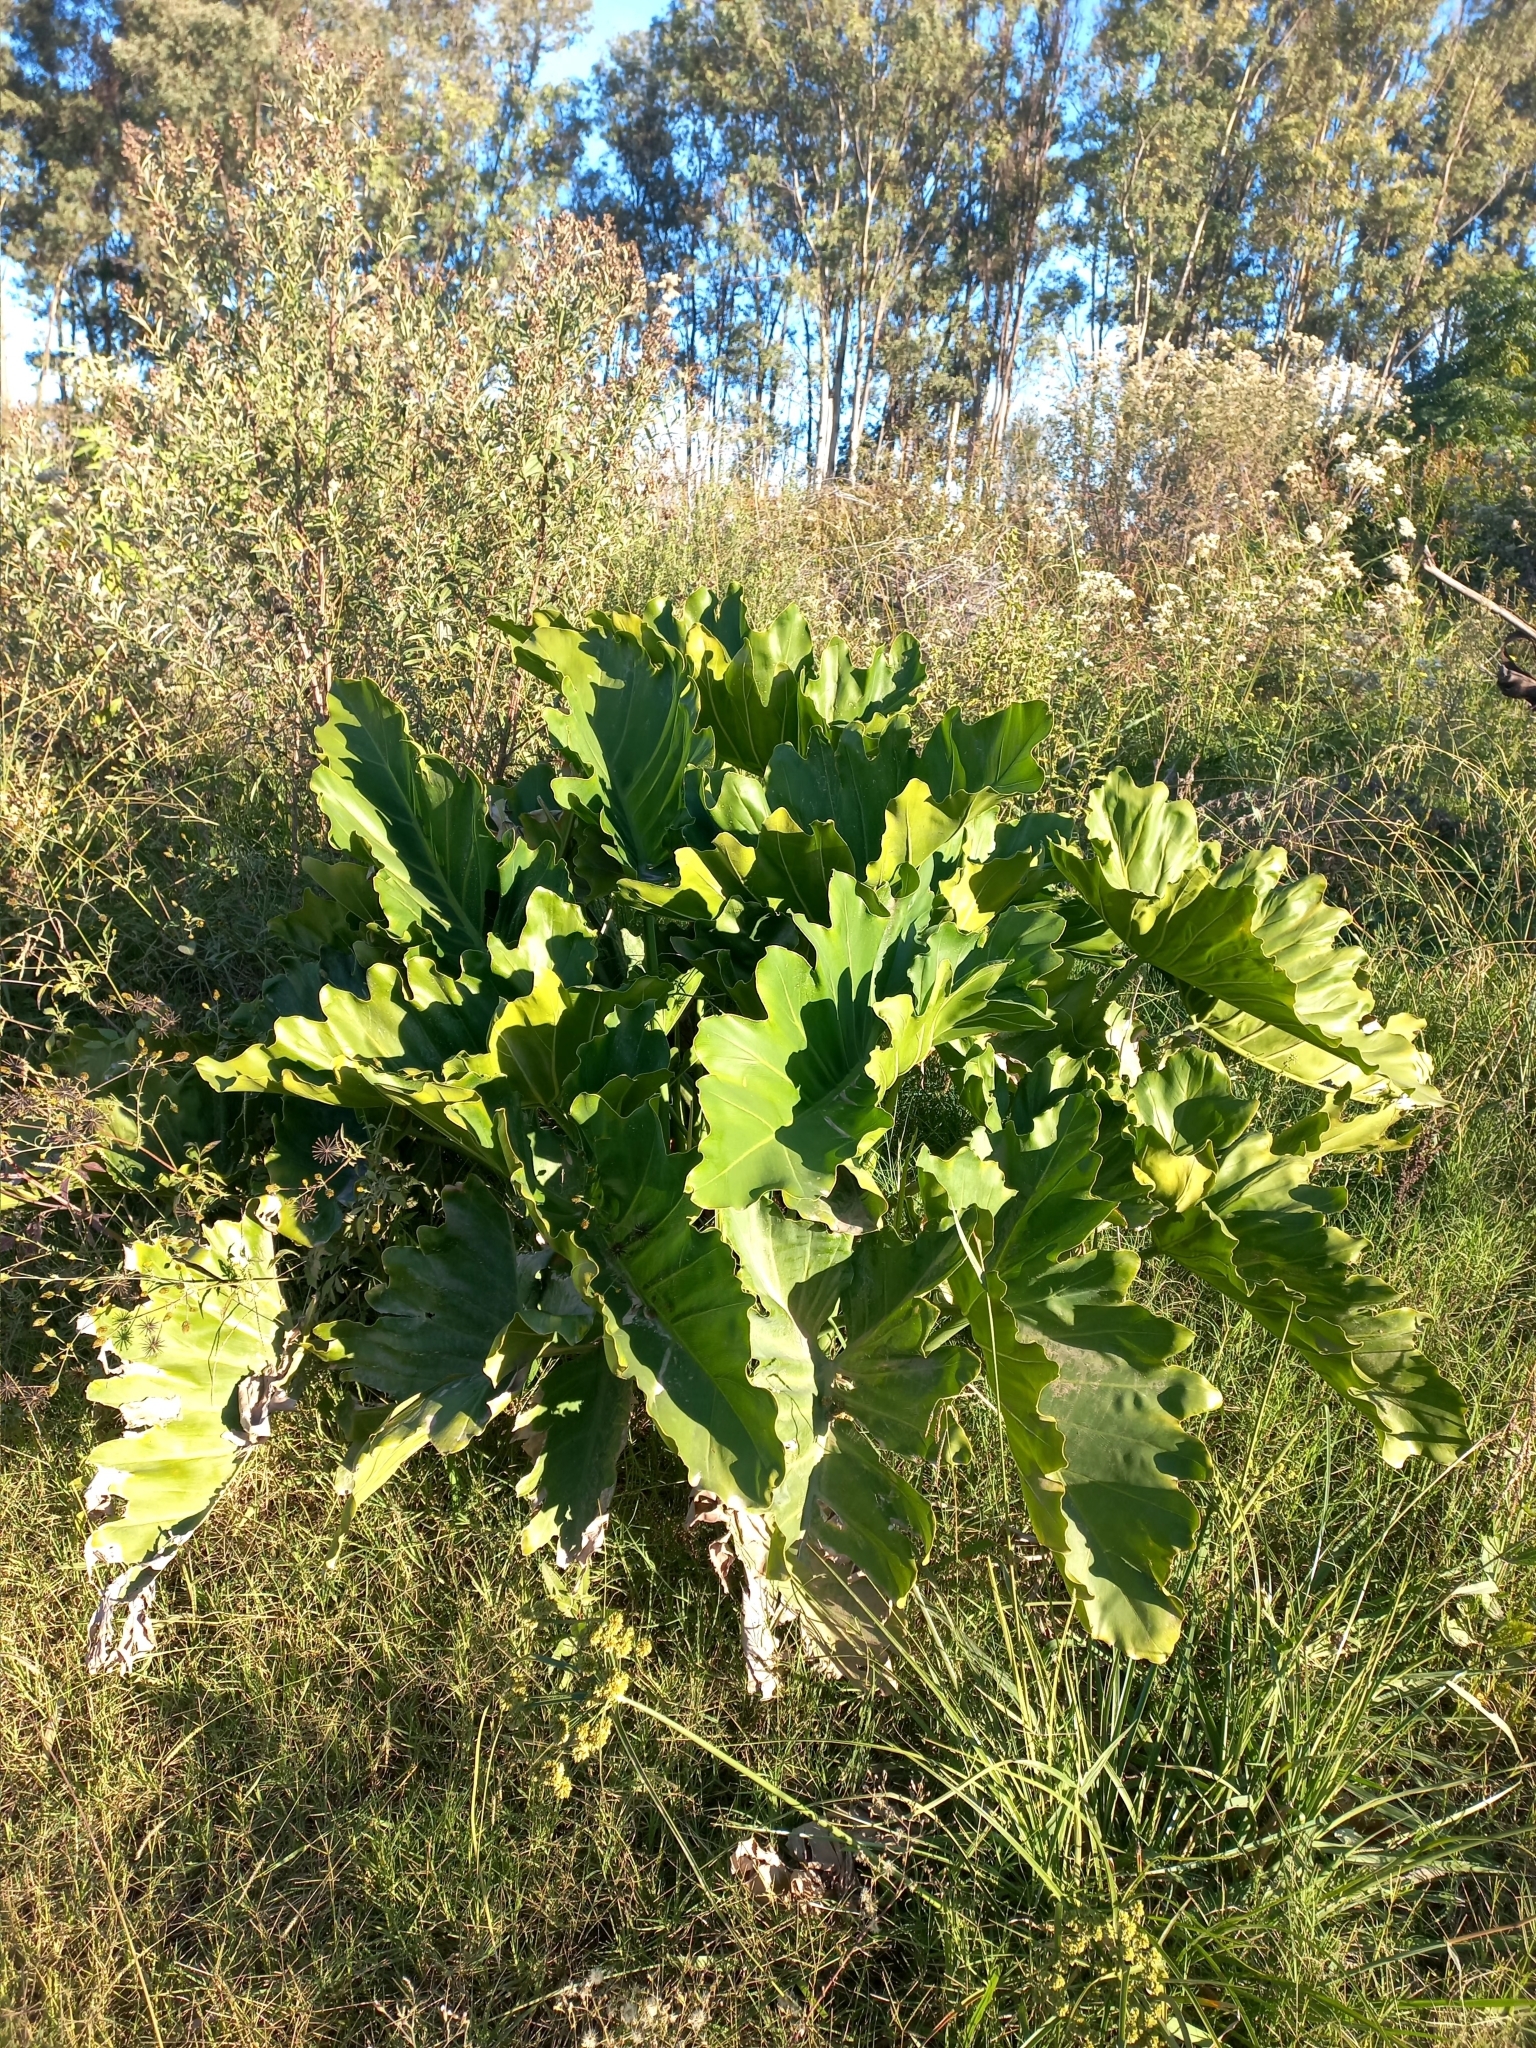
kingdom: Plantae
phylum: Tracheophyta
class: Liliopsida
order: Alismatales
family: Araceae
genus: Thaumatophyllum
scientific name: Thaumatophyllum undulatum
